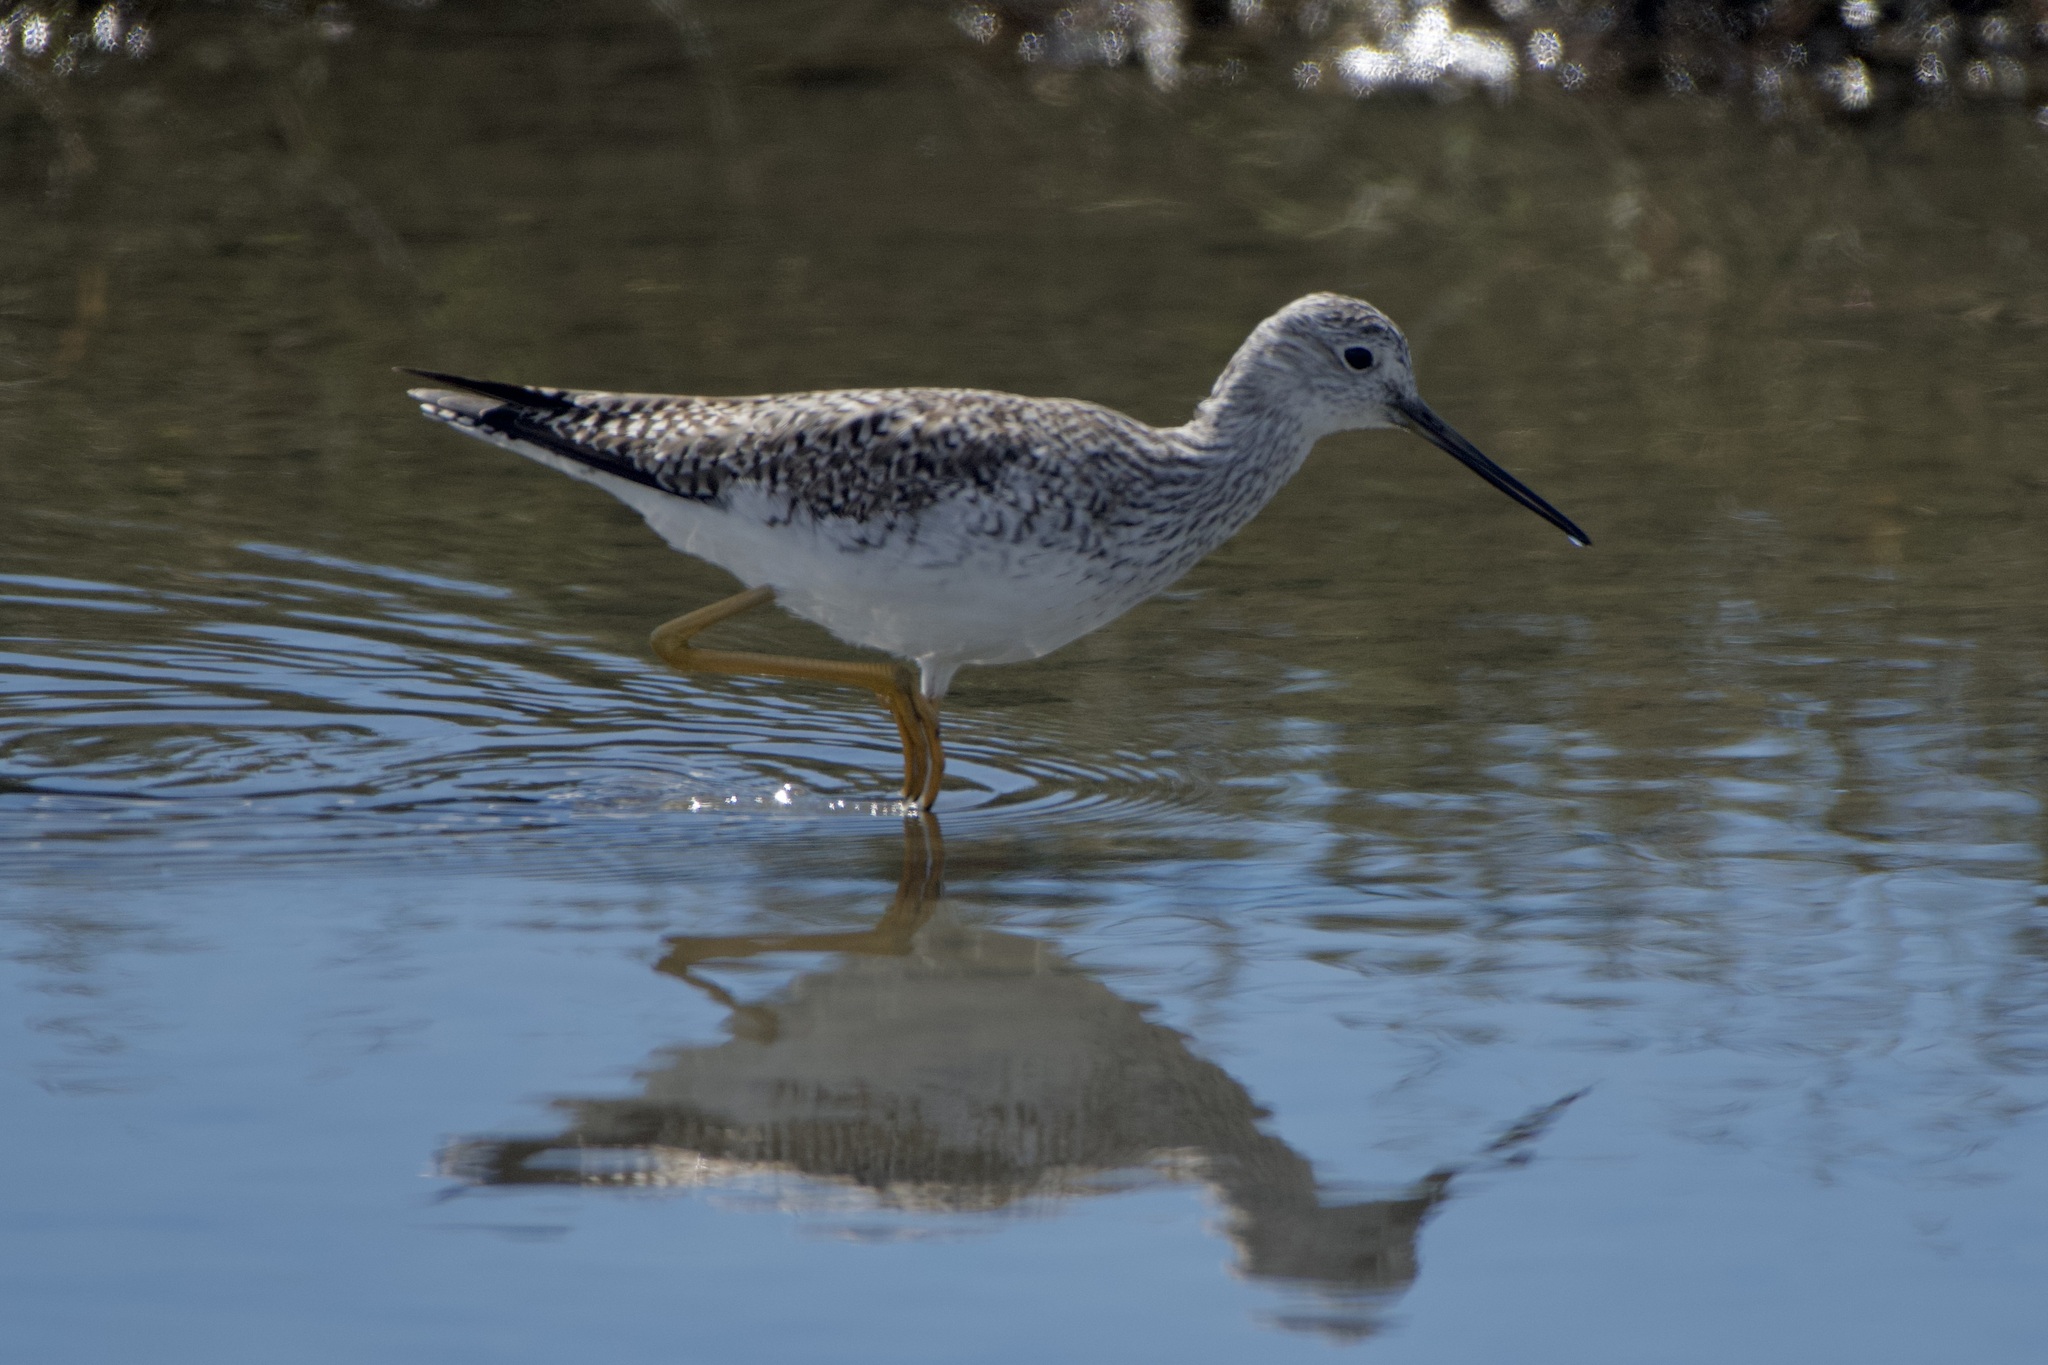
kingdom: Animalia
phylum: Chordata
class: Aves
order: Charadriiformes
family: Scolopacidae
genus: Tringa
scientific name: Tringa melanoleuca
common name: Greater yellowlegs
